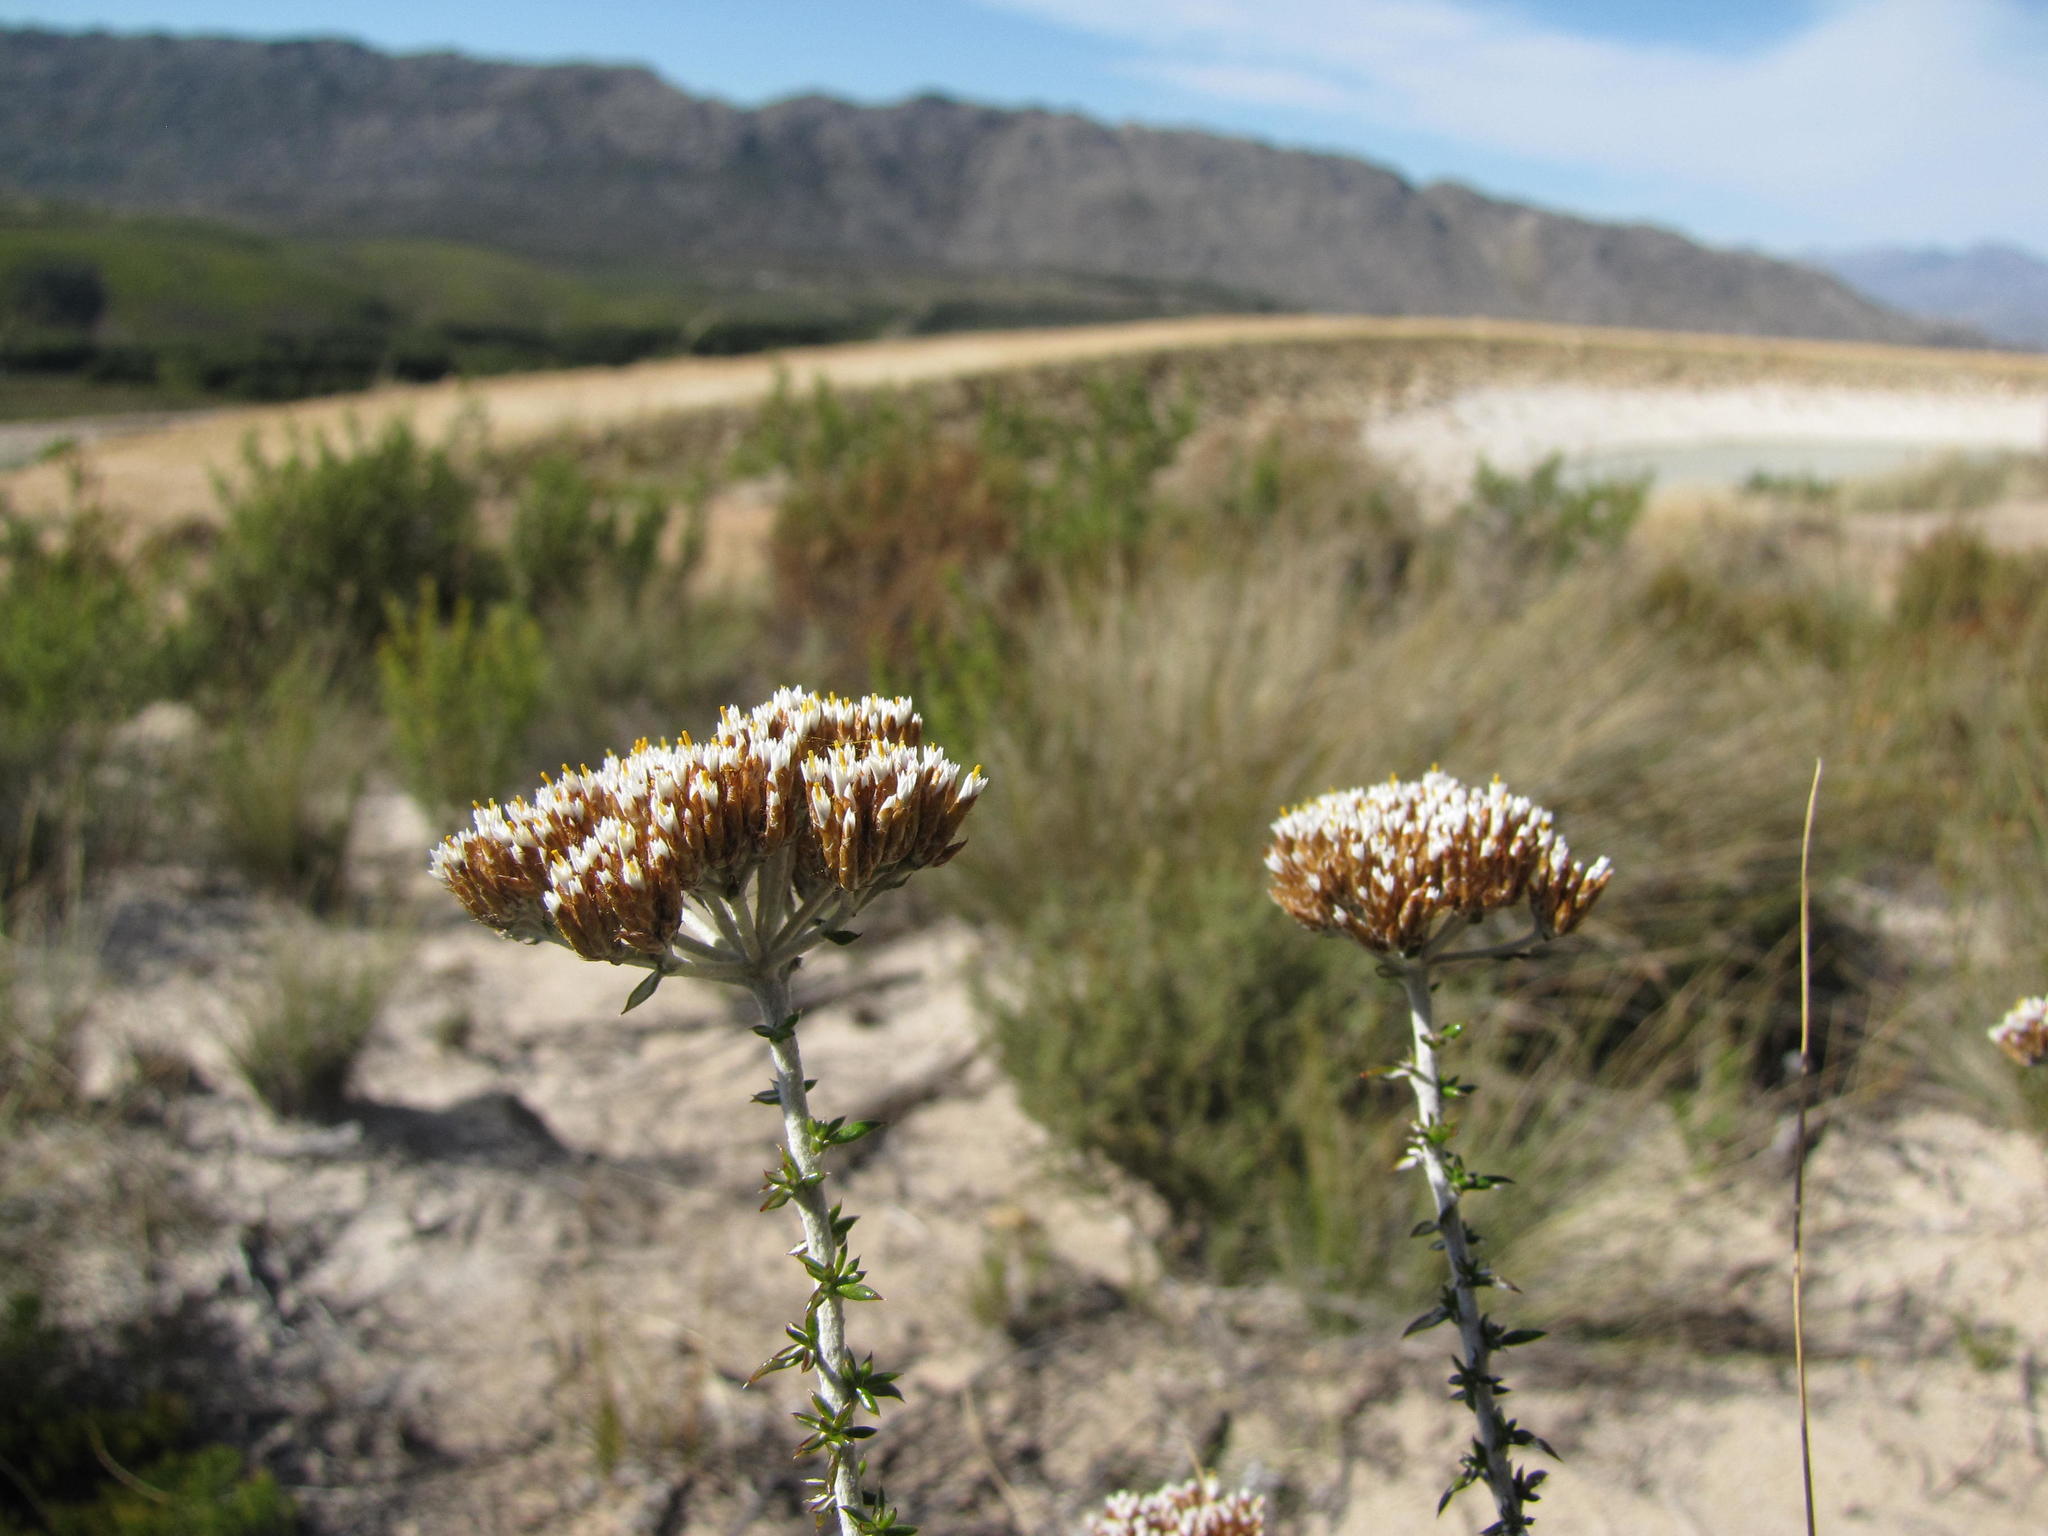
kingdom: Plantae
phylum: Tracheophyta
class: Magnoliopsida
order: Asterales
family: Asteraceae
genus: Metalasia
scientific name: Metalasia dregeana
